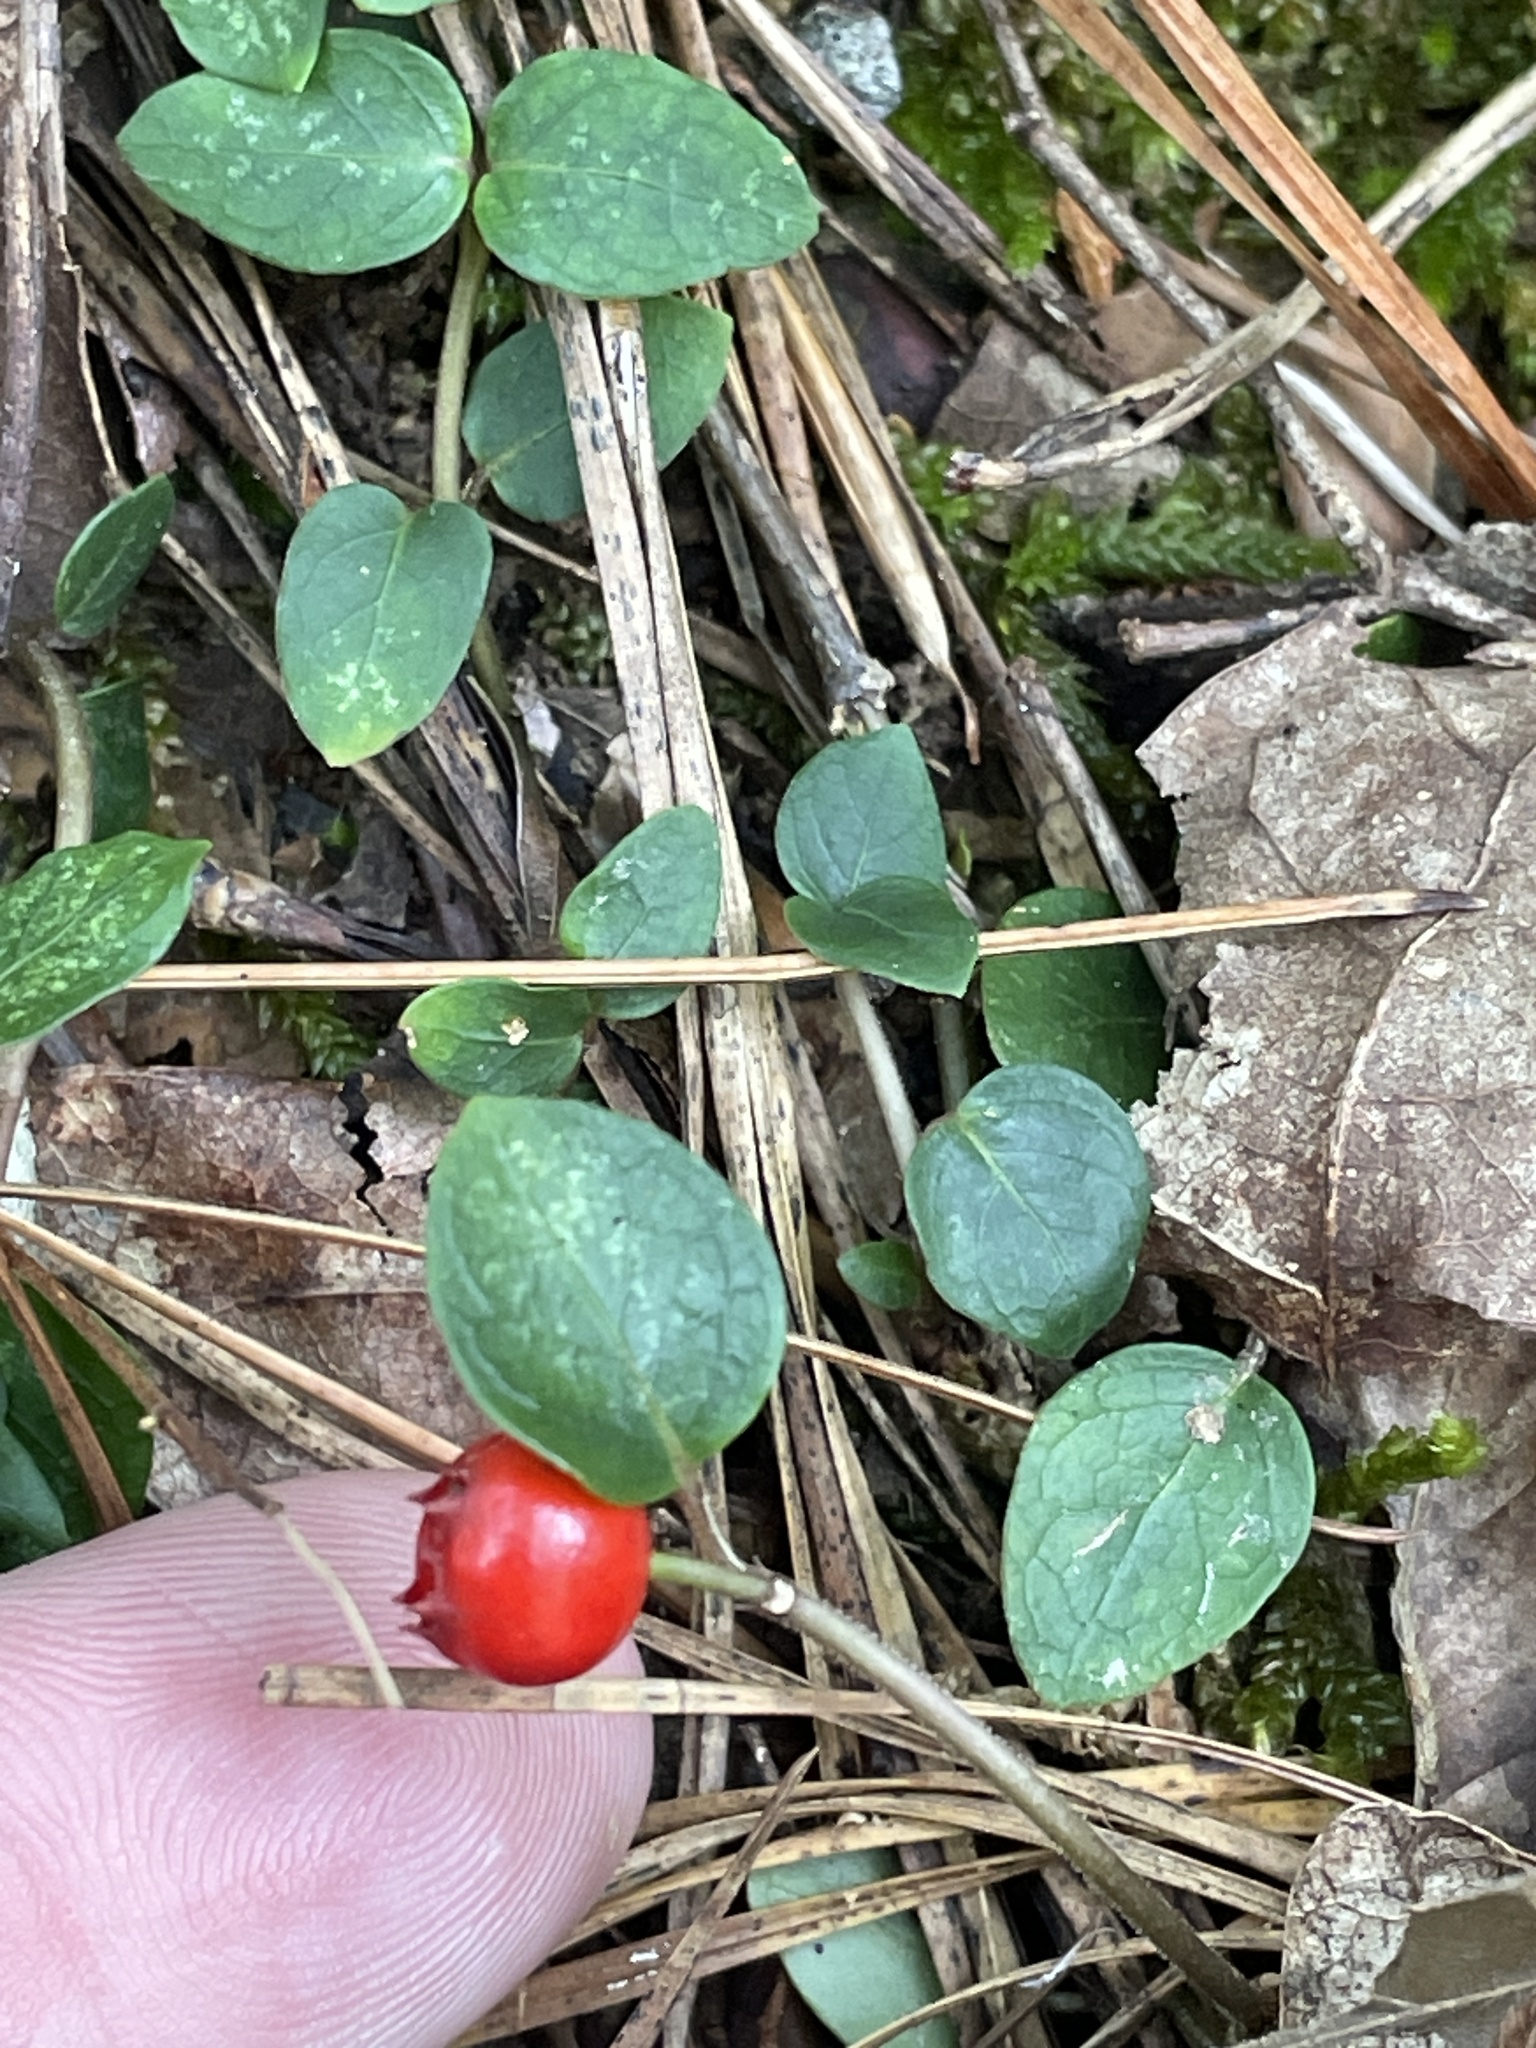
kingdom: Plantae
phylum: Tracheophyta
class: Magnoliopsida
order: Gentianales
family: Rubiaceae
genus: Mitchella
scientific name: Mitchella repens
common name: Partridge-berry
